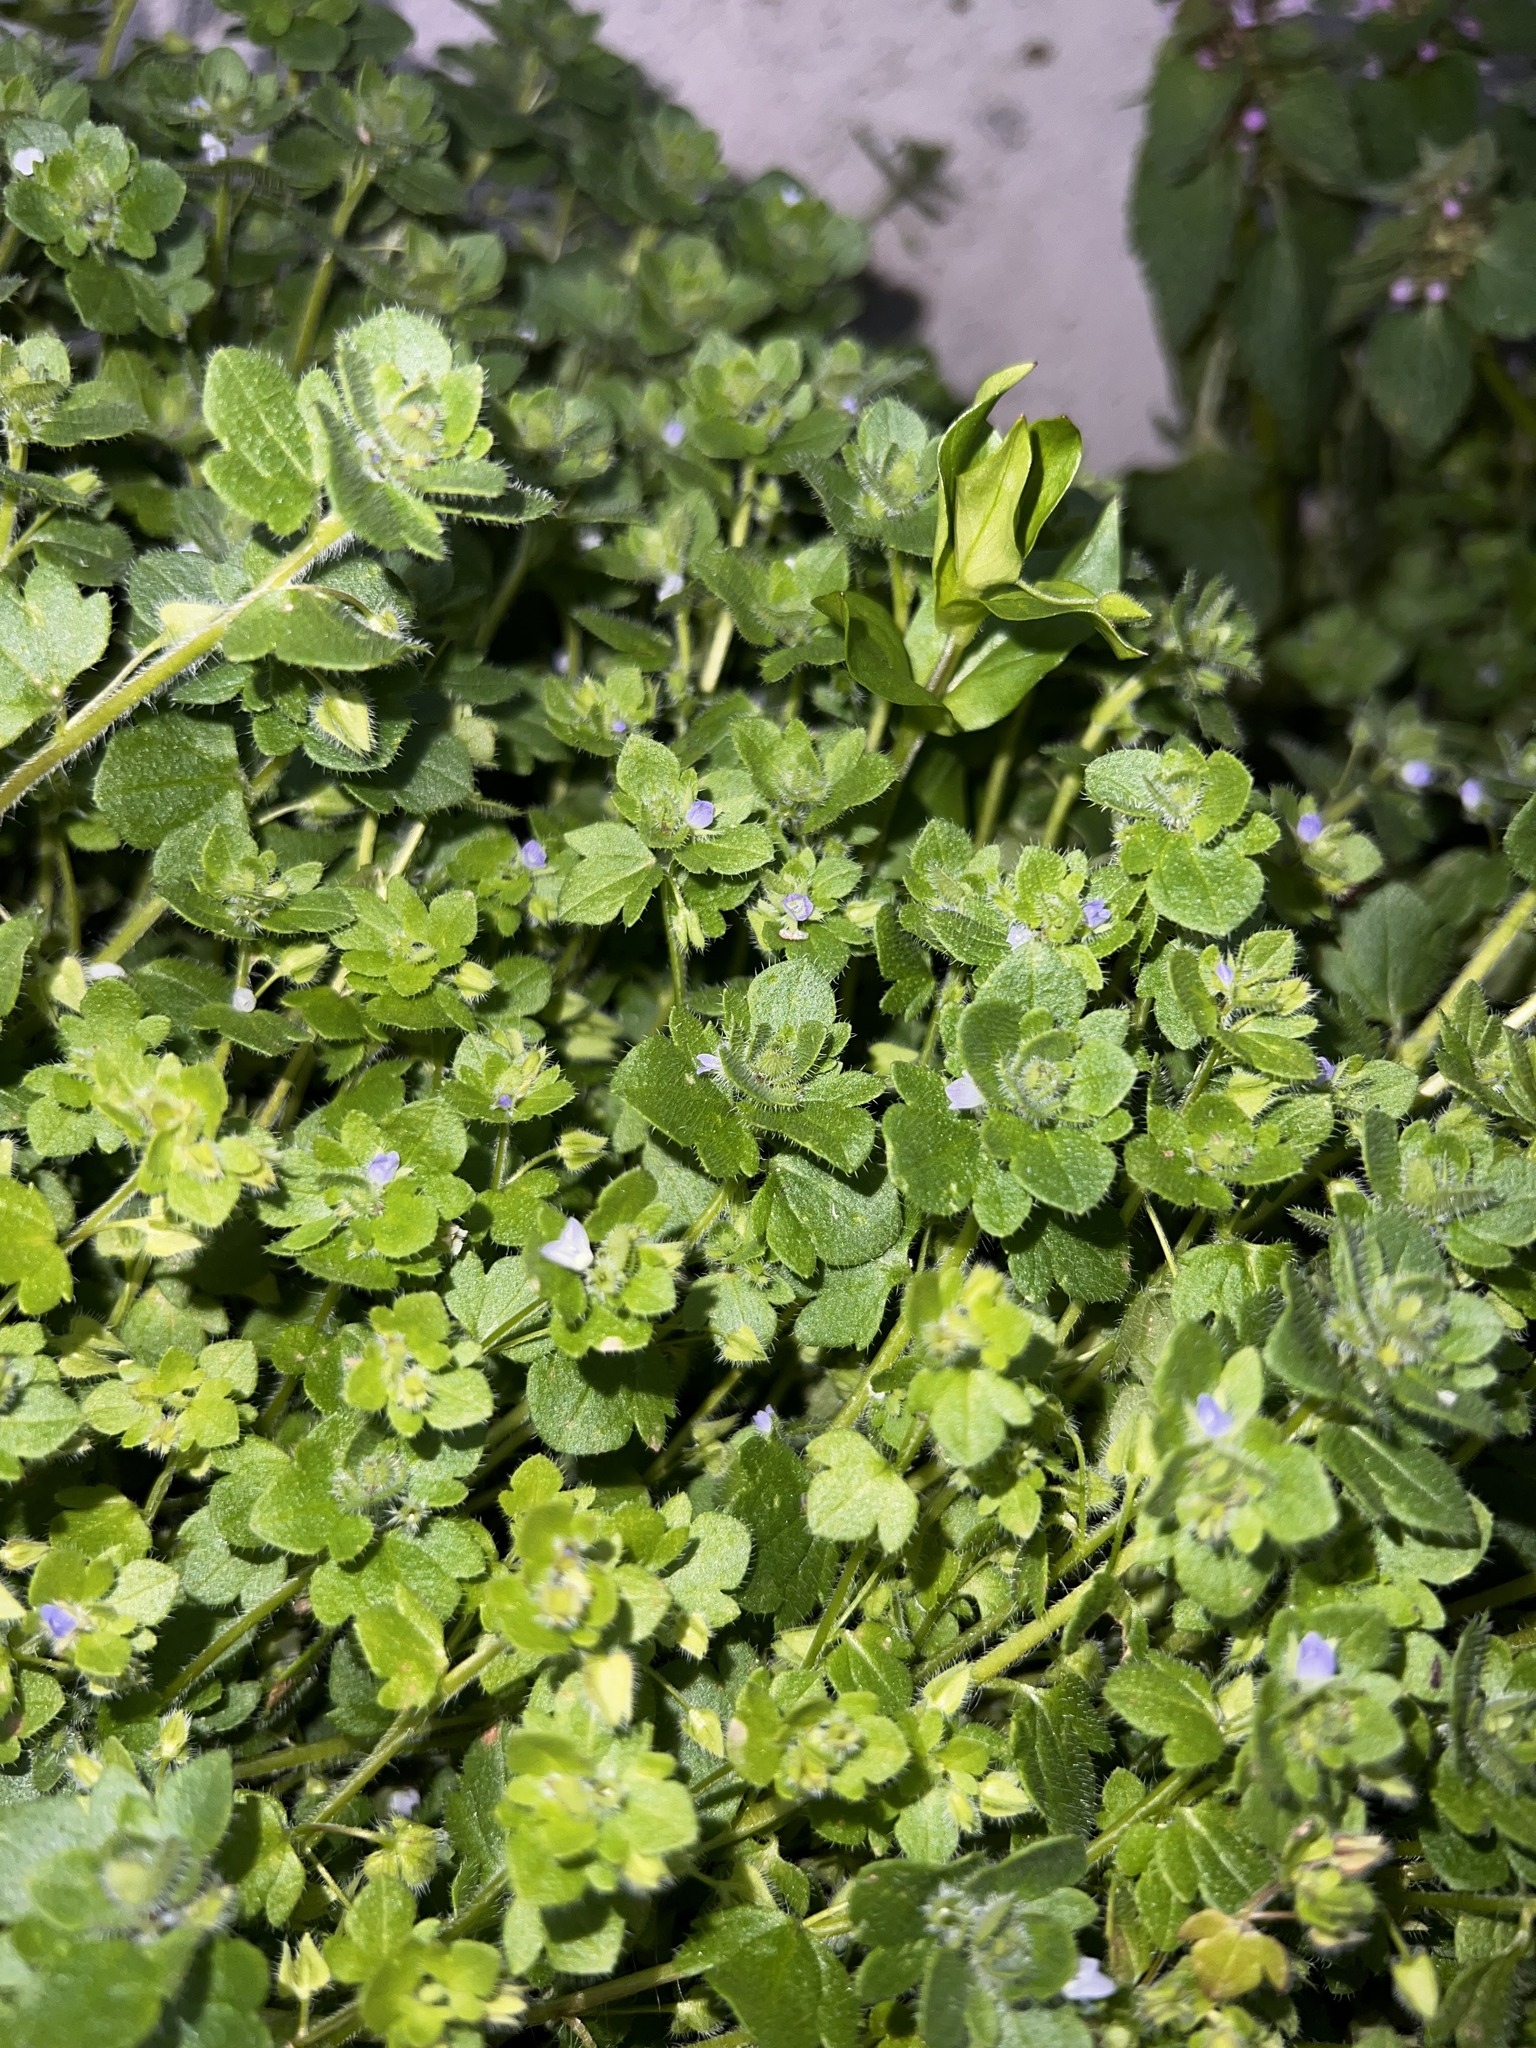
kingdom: Plantae
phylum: Tracheophyta
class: Magnoliopsida
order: Lamiales
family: Plantaginaceae
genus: Veronica
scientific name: Veronica hederifolia
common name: Ivy-leaved speedwell
